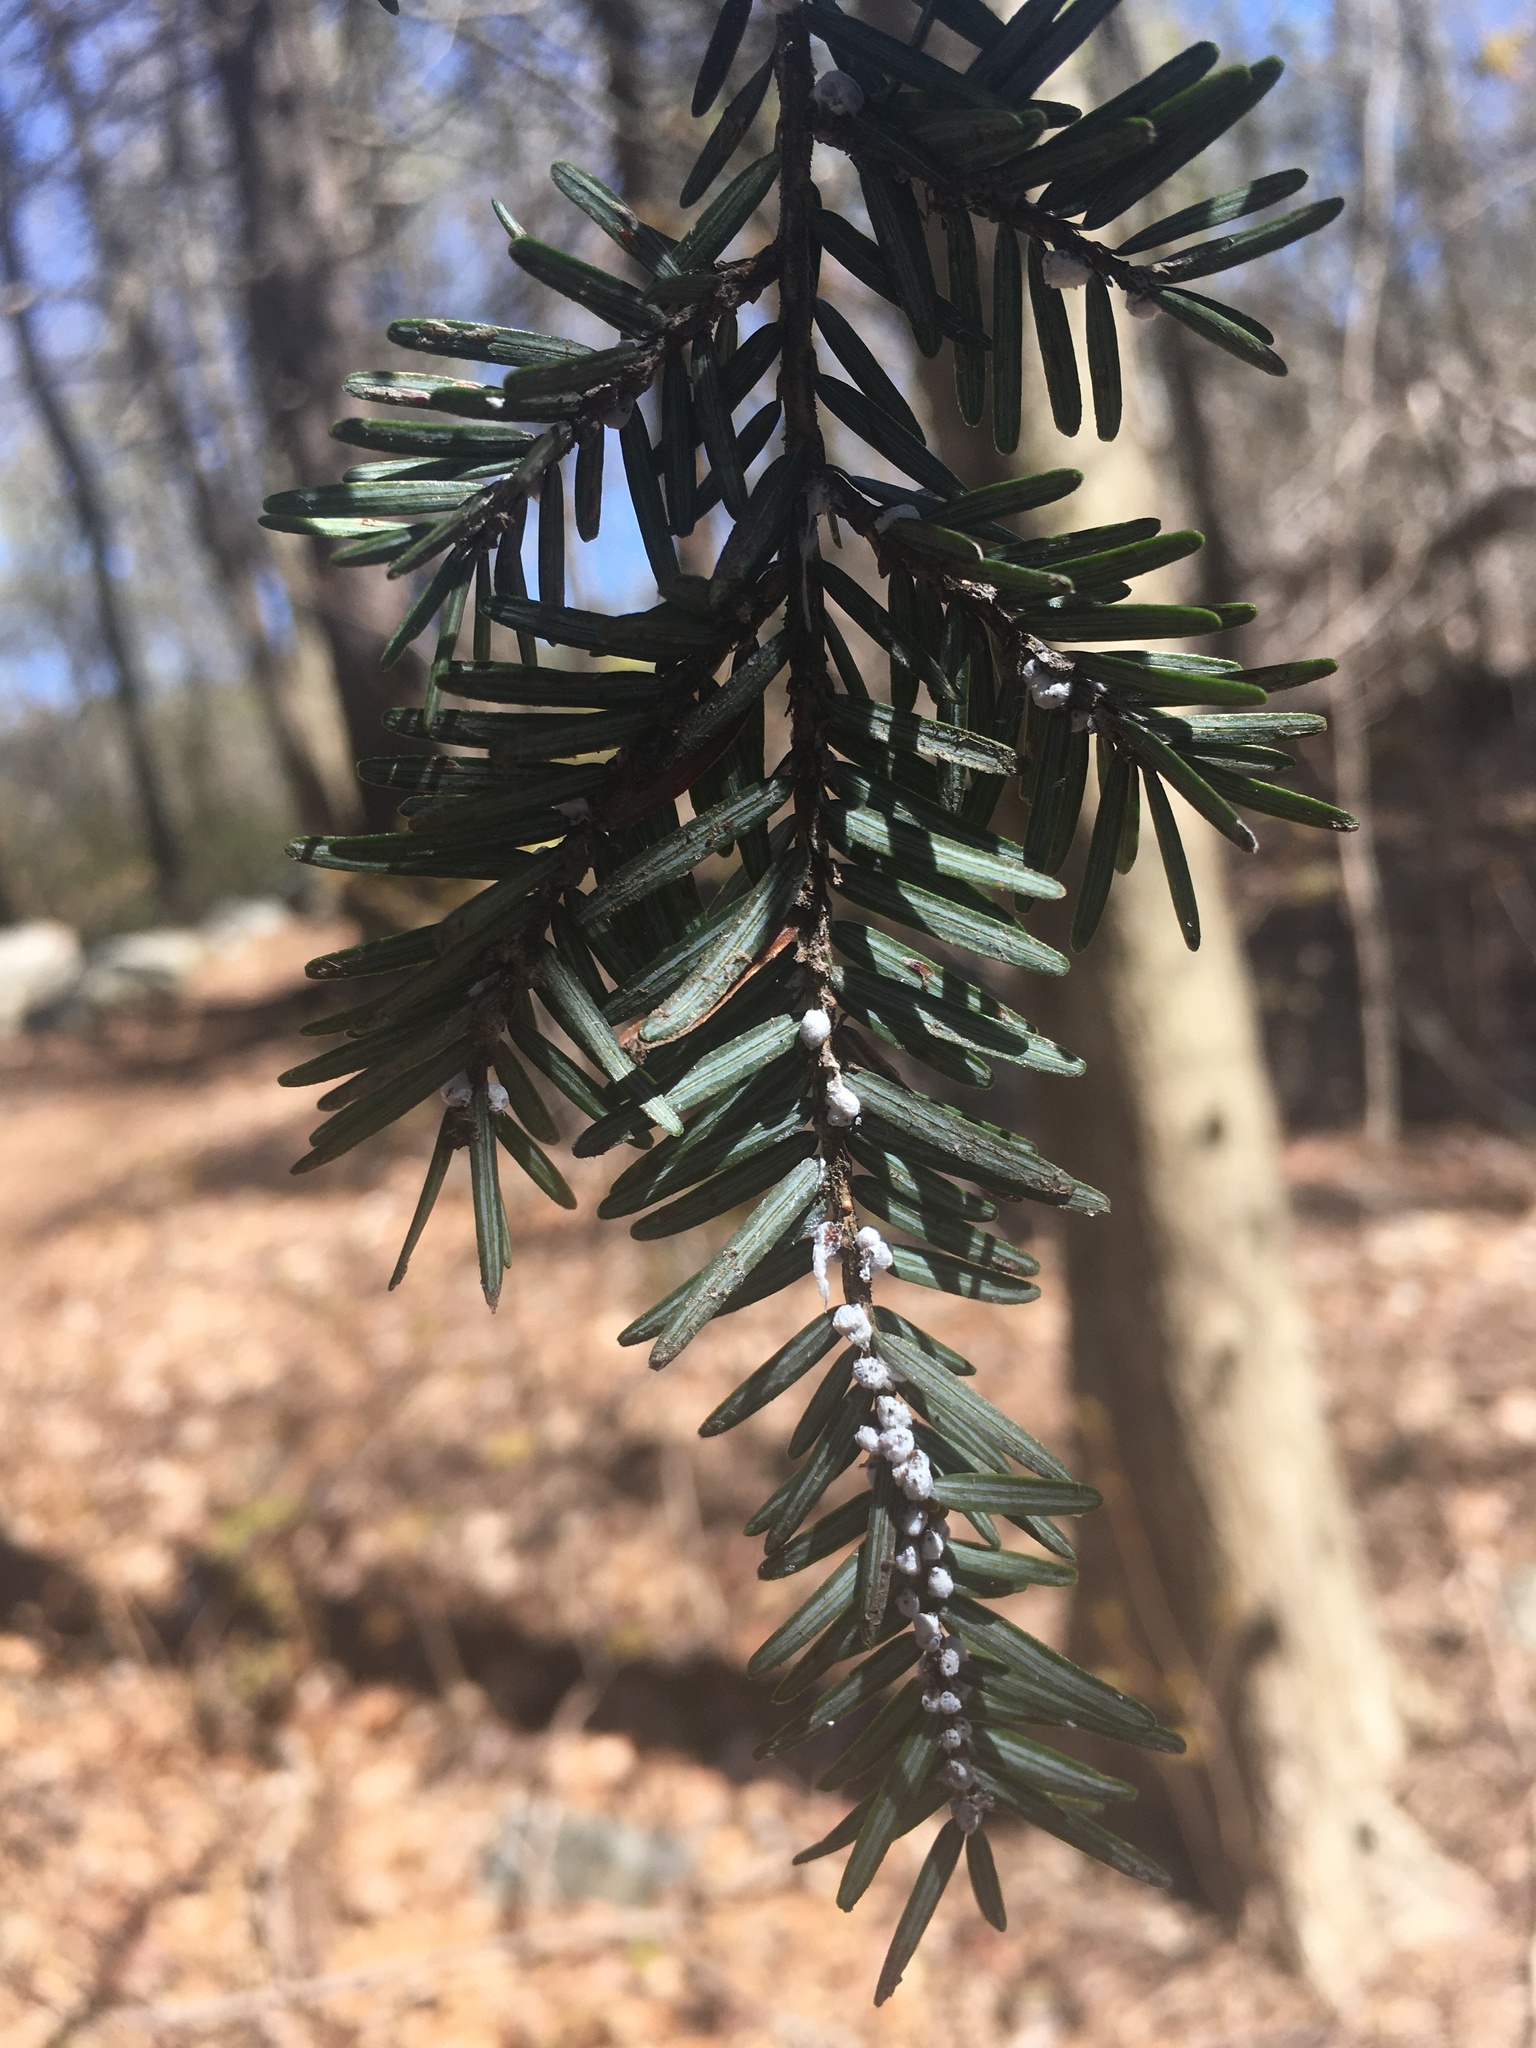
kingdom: Animalia
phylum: Arthropoda
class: Insecta
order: Hemiptera
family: Adelgidae
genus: Adelges
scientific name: Adelges tsugae
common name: Hemlock woolly adelgid
